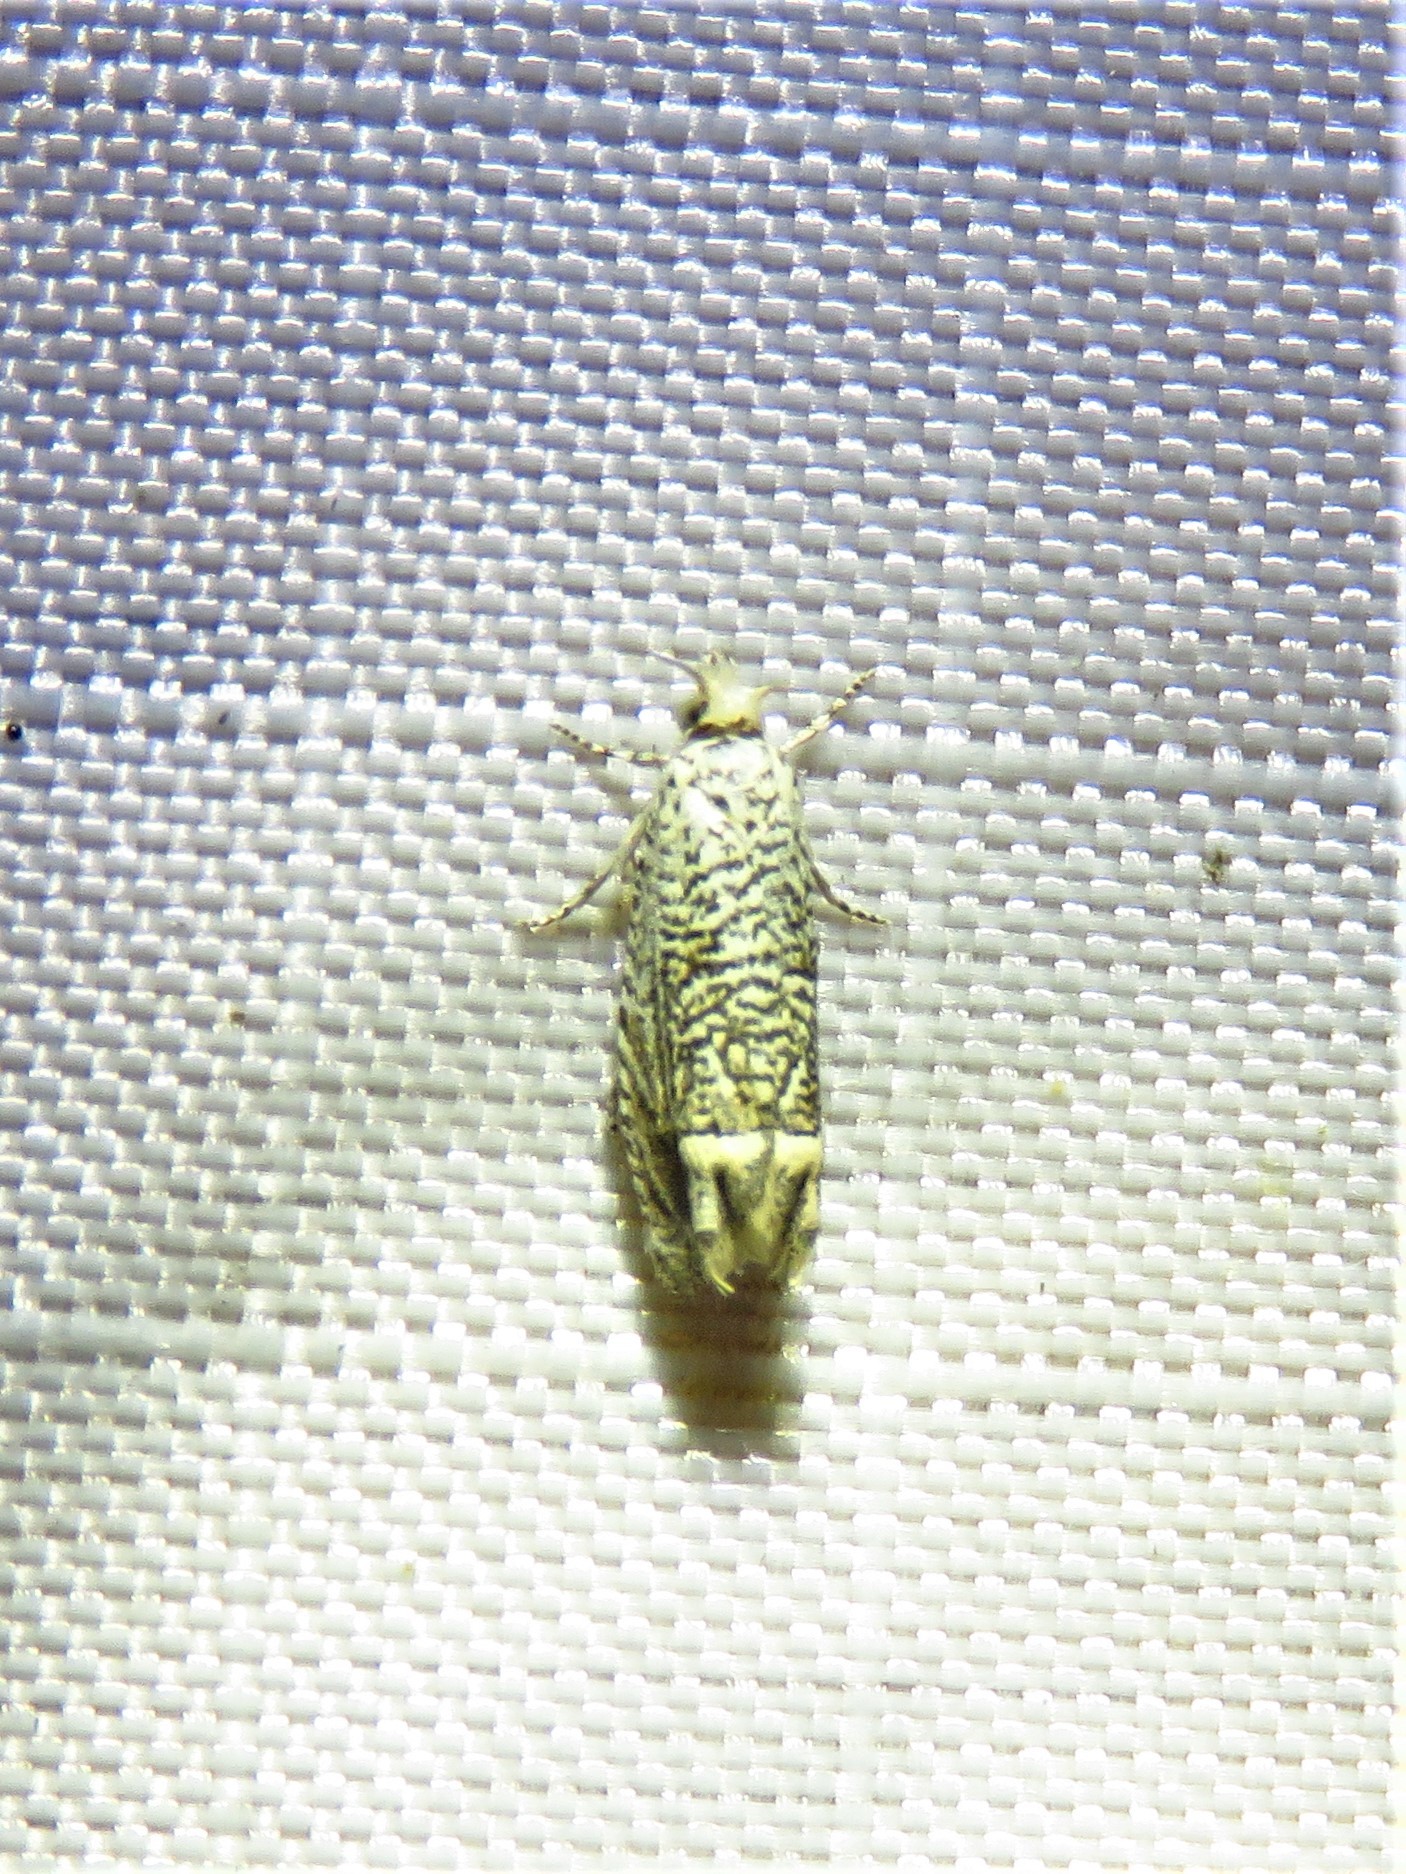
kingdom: Animalia
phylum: Arthropoda
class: Insecta
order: Lepidoptera
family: Tortricidae
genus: Eucosma
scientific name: Eucosma argutipunctana
